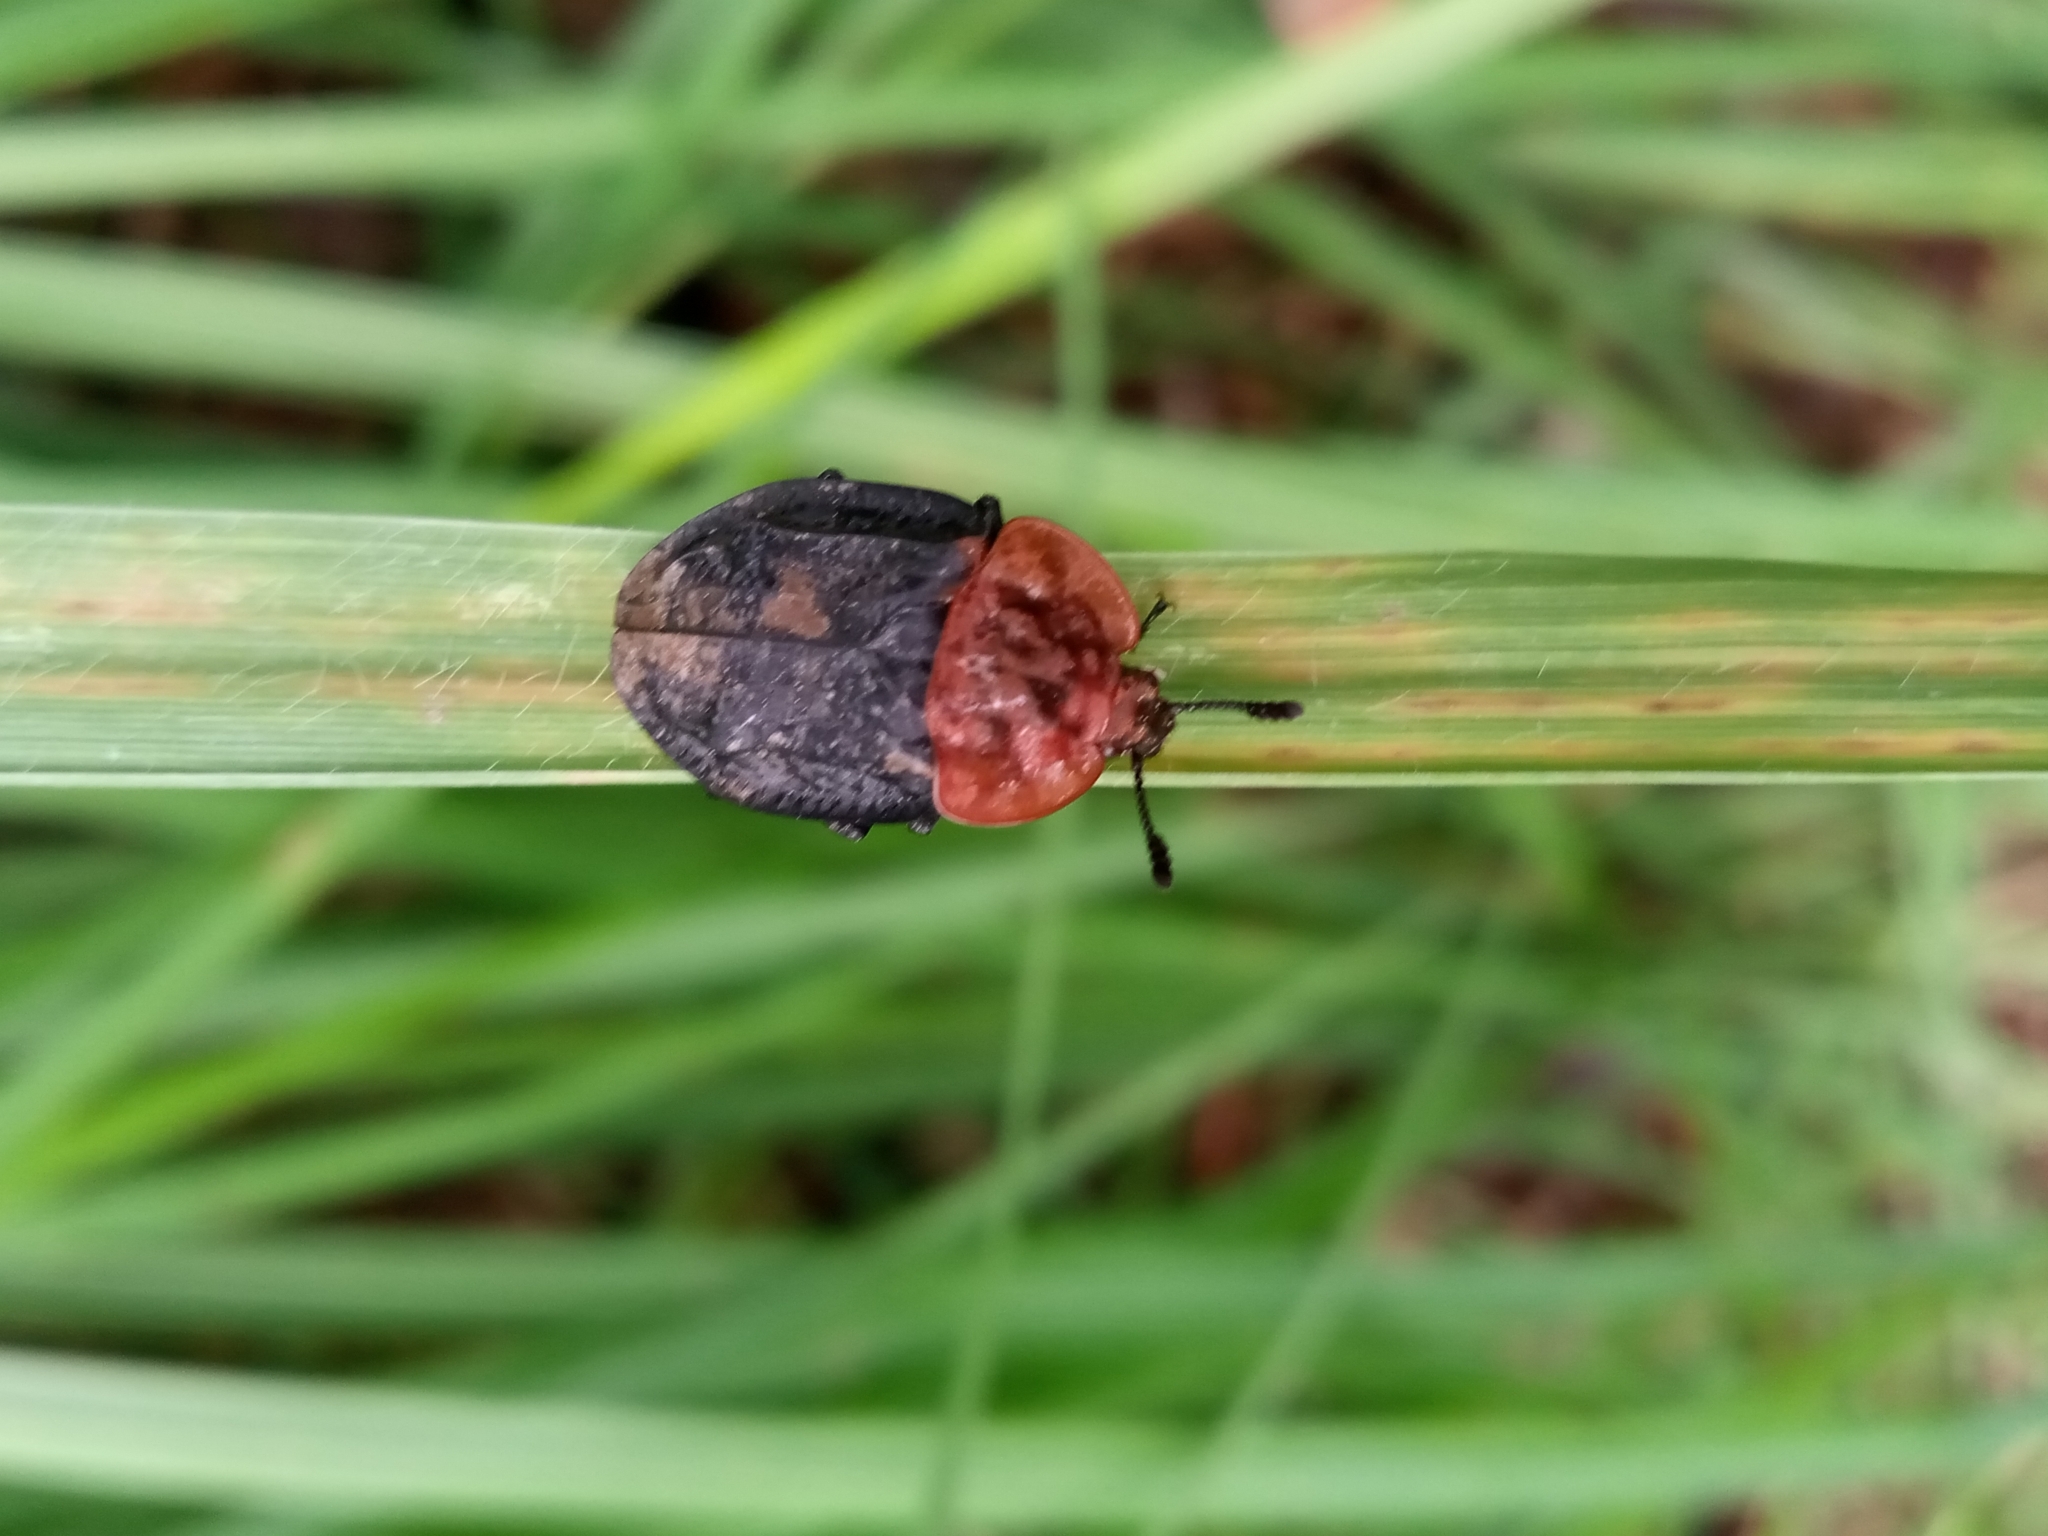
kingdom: Animalia
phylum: Arthropoda
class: Insecta
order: Coleoptera
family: Staphylinidae
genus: Oiceoptoma
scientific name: Oiceoptoma thoracicum
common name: Red-breasted carrion beetle
